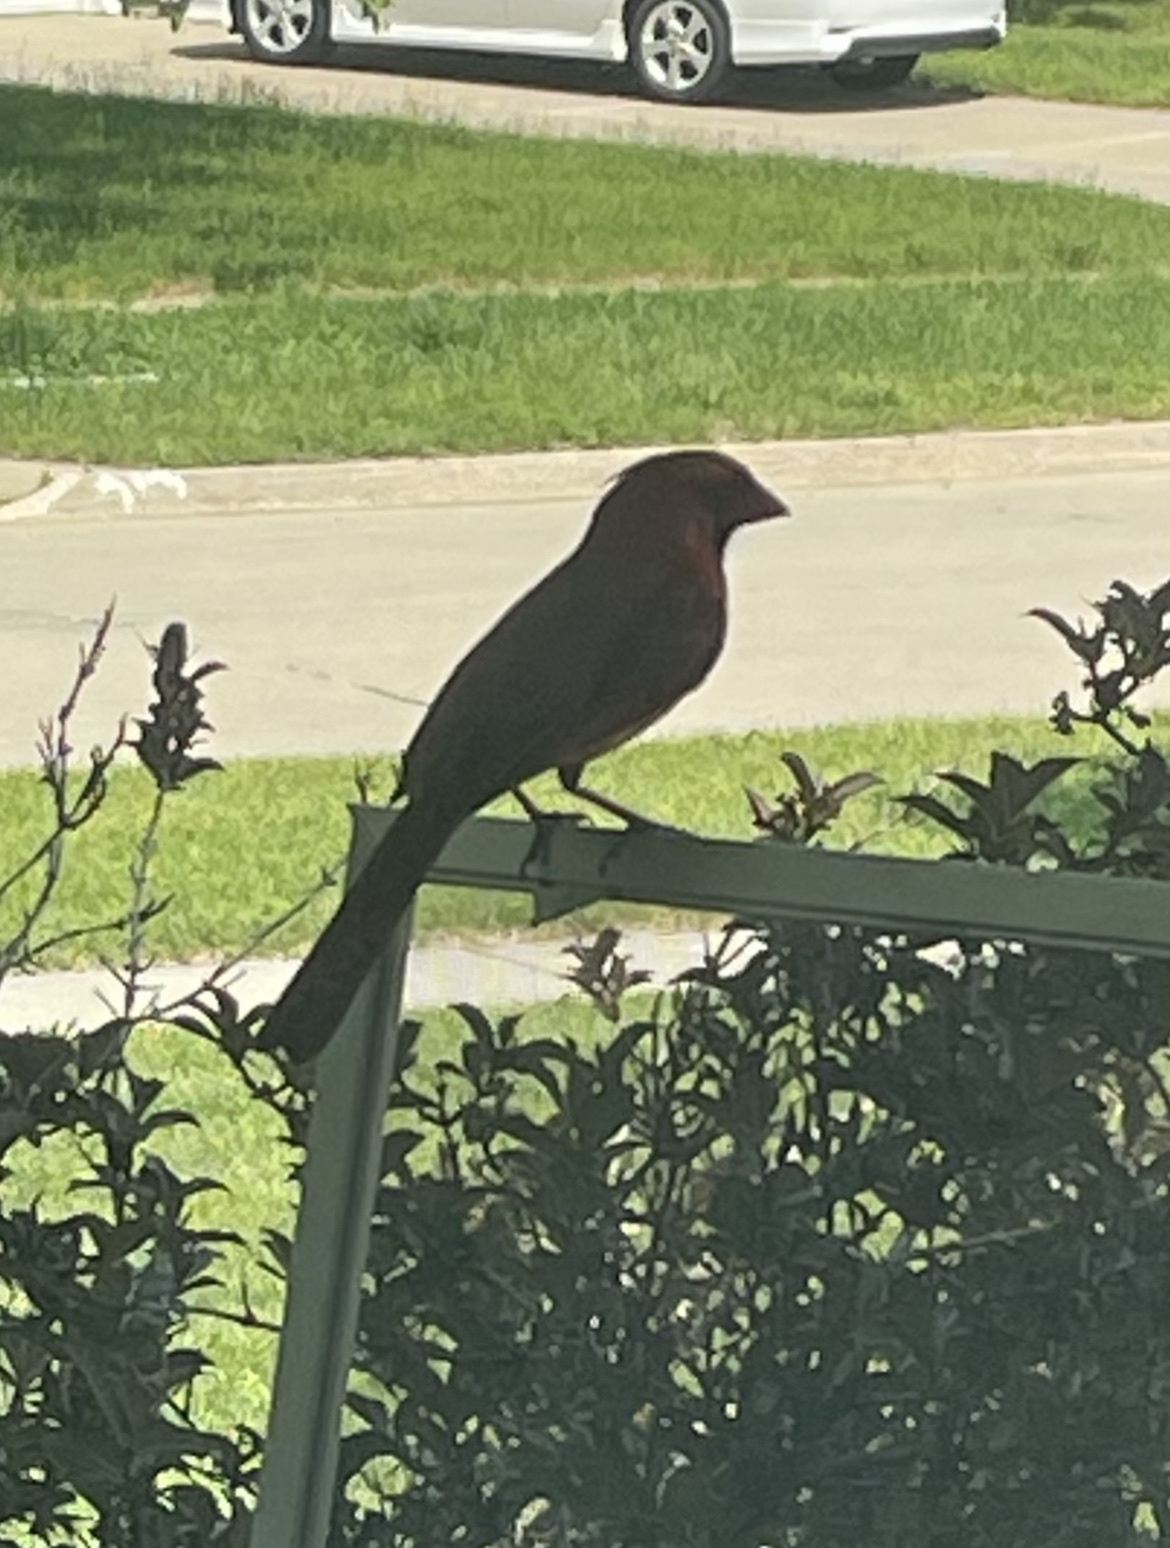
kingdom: Animalia
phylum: Chordata
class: Aves
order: Passeriformes
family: Cardinalidae
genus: Cardinalis
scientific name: Cardinalis cardinalis
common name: Northern cardinal
